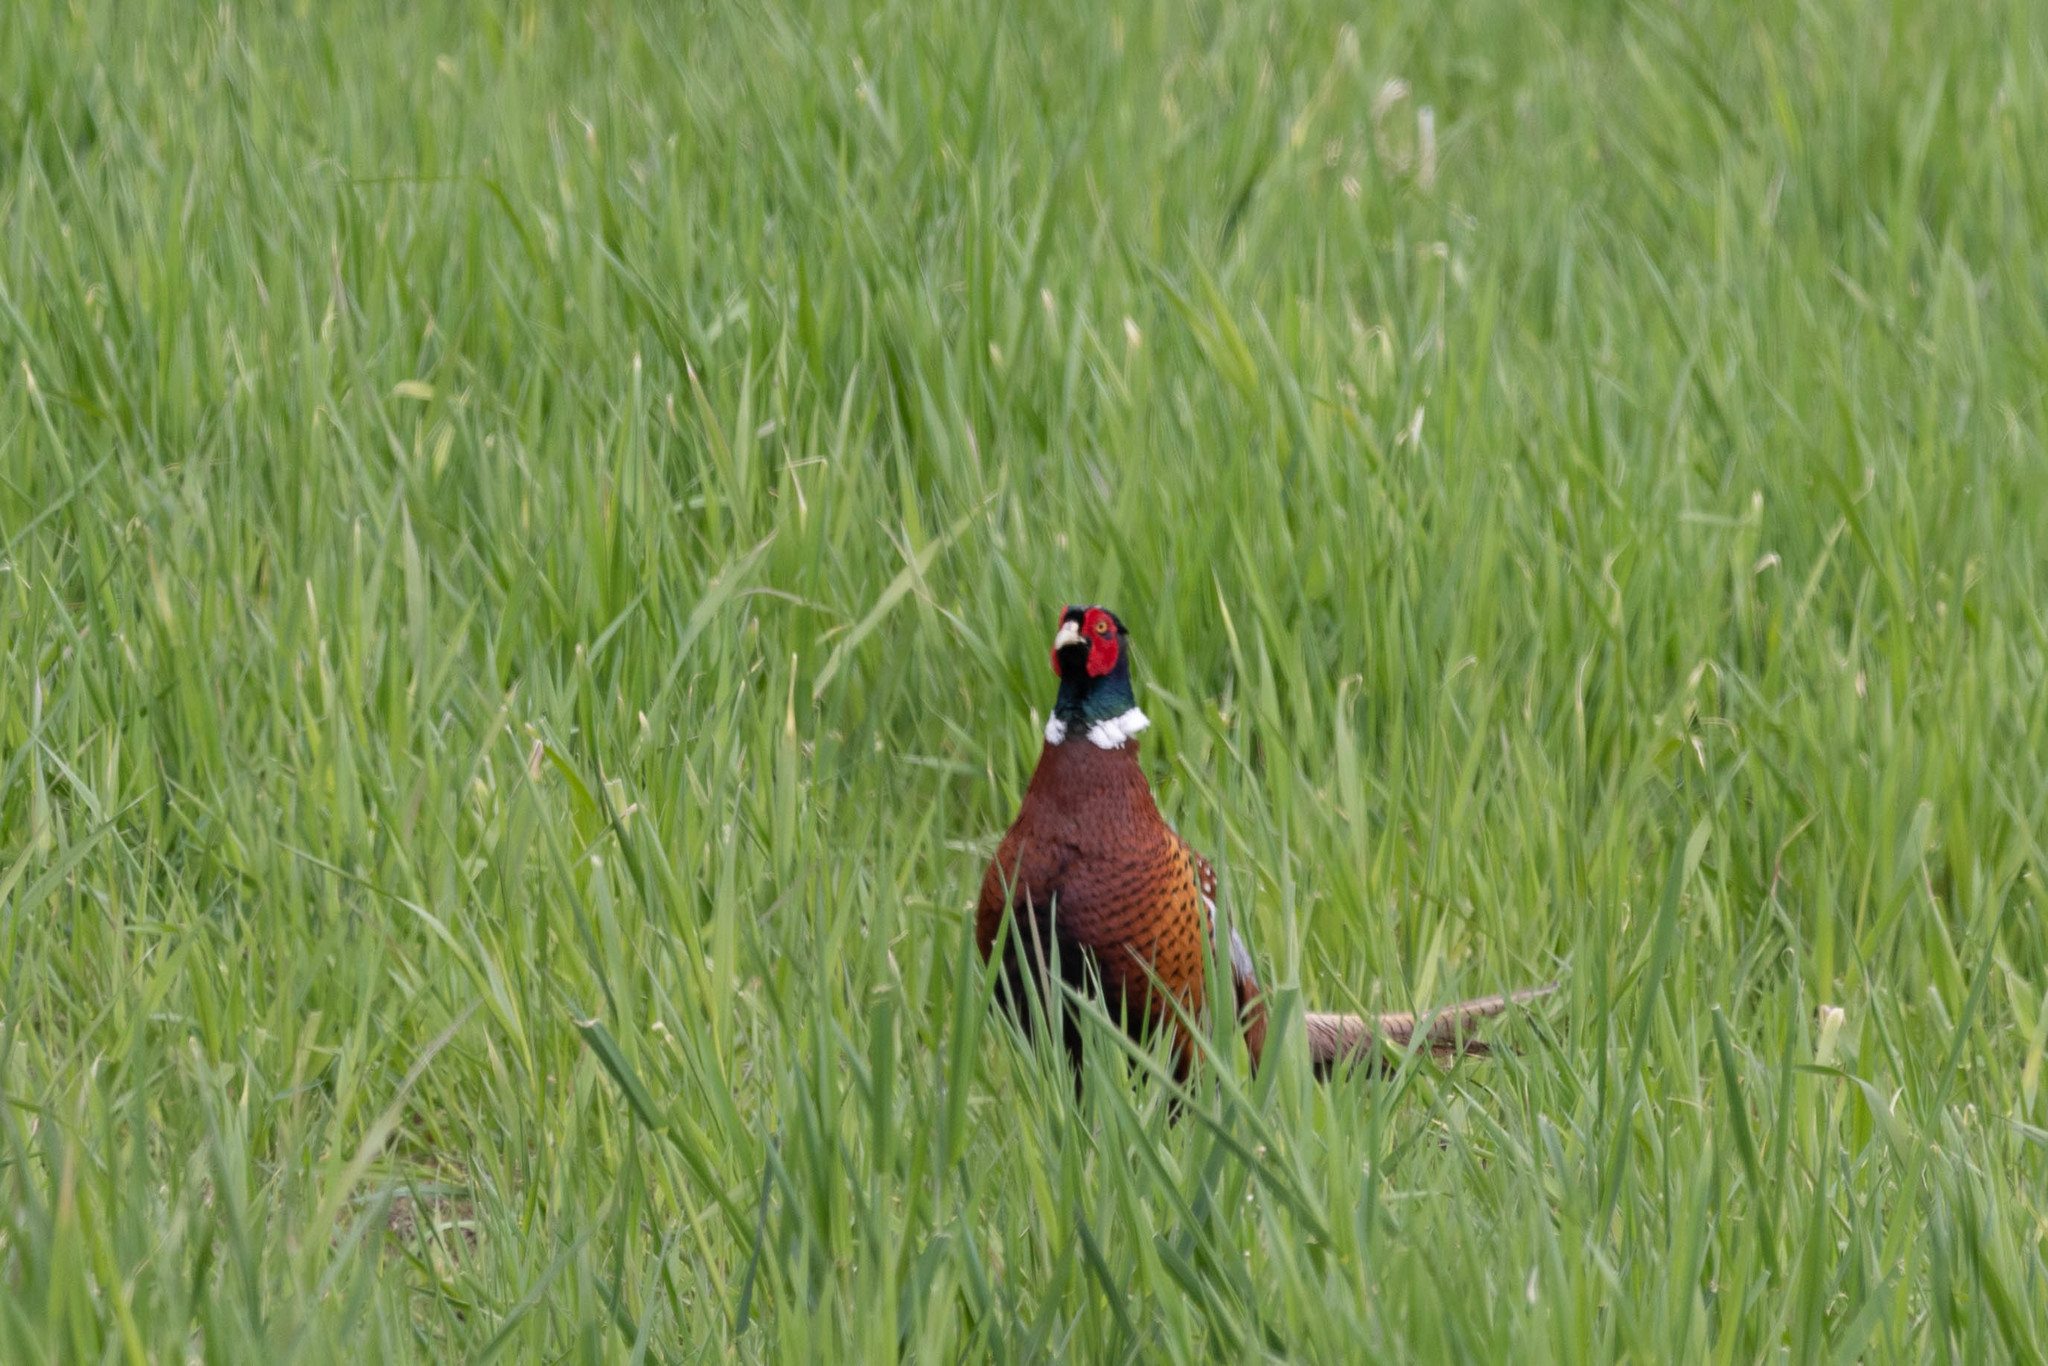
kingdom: Animalia
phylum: Chordata
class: Aves
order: Galliformes
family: Phasianidae
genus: Phasianus
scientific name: Phasianus colchicus
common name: Common pheasant
